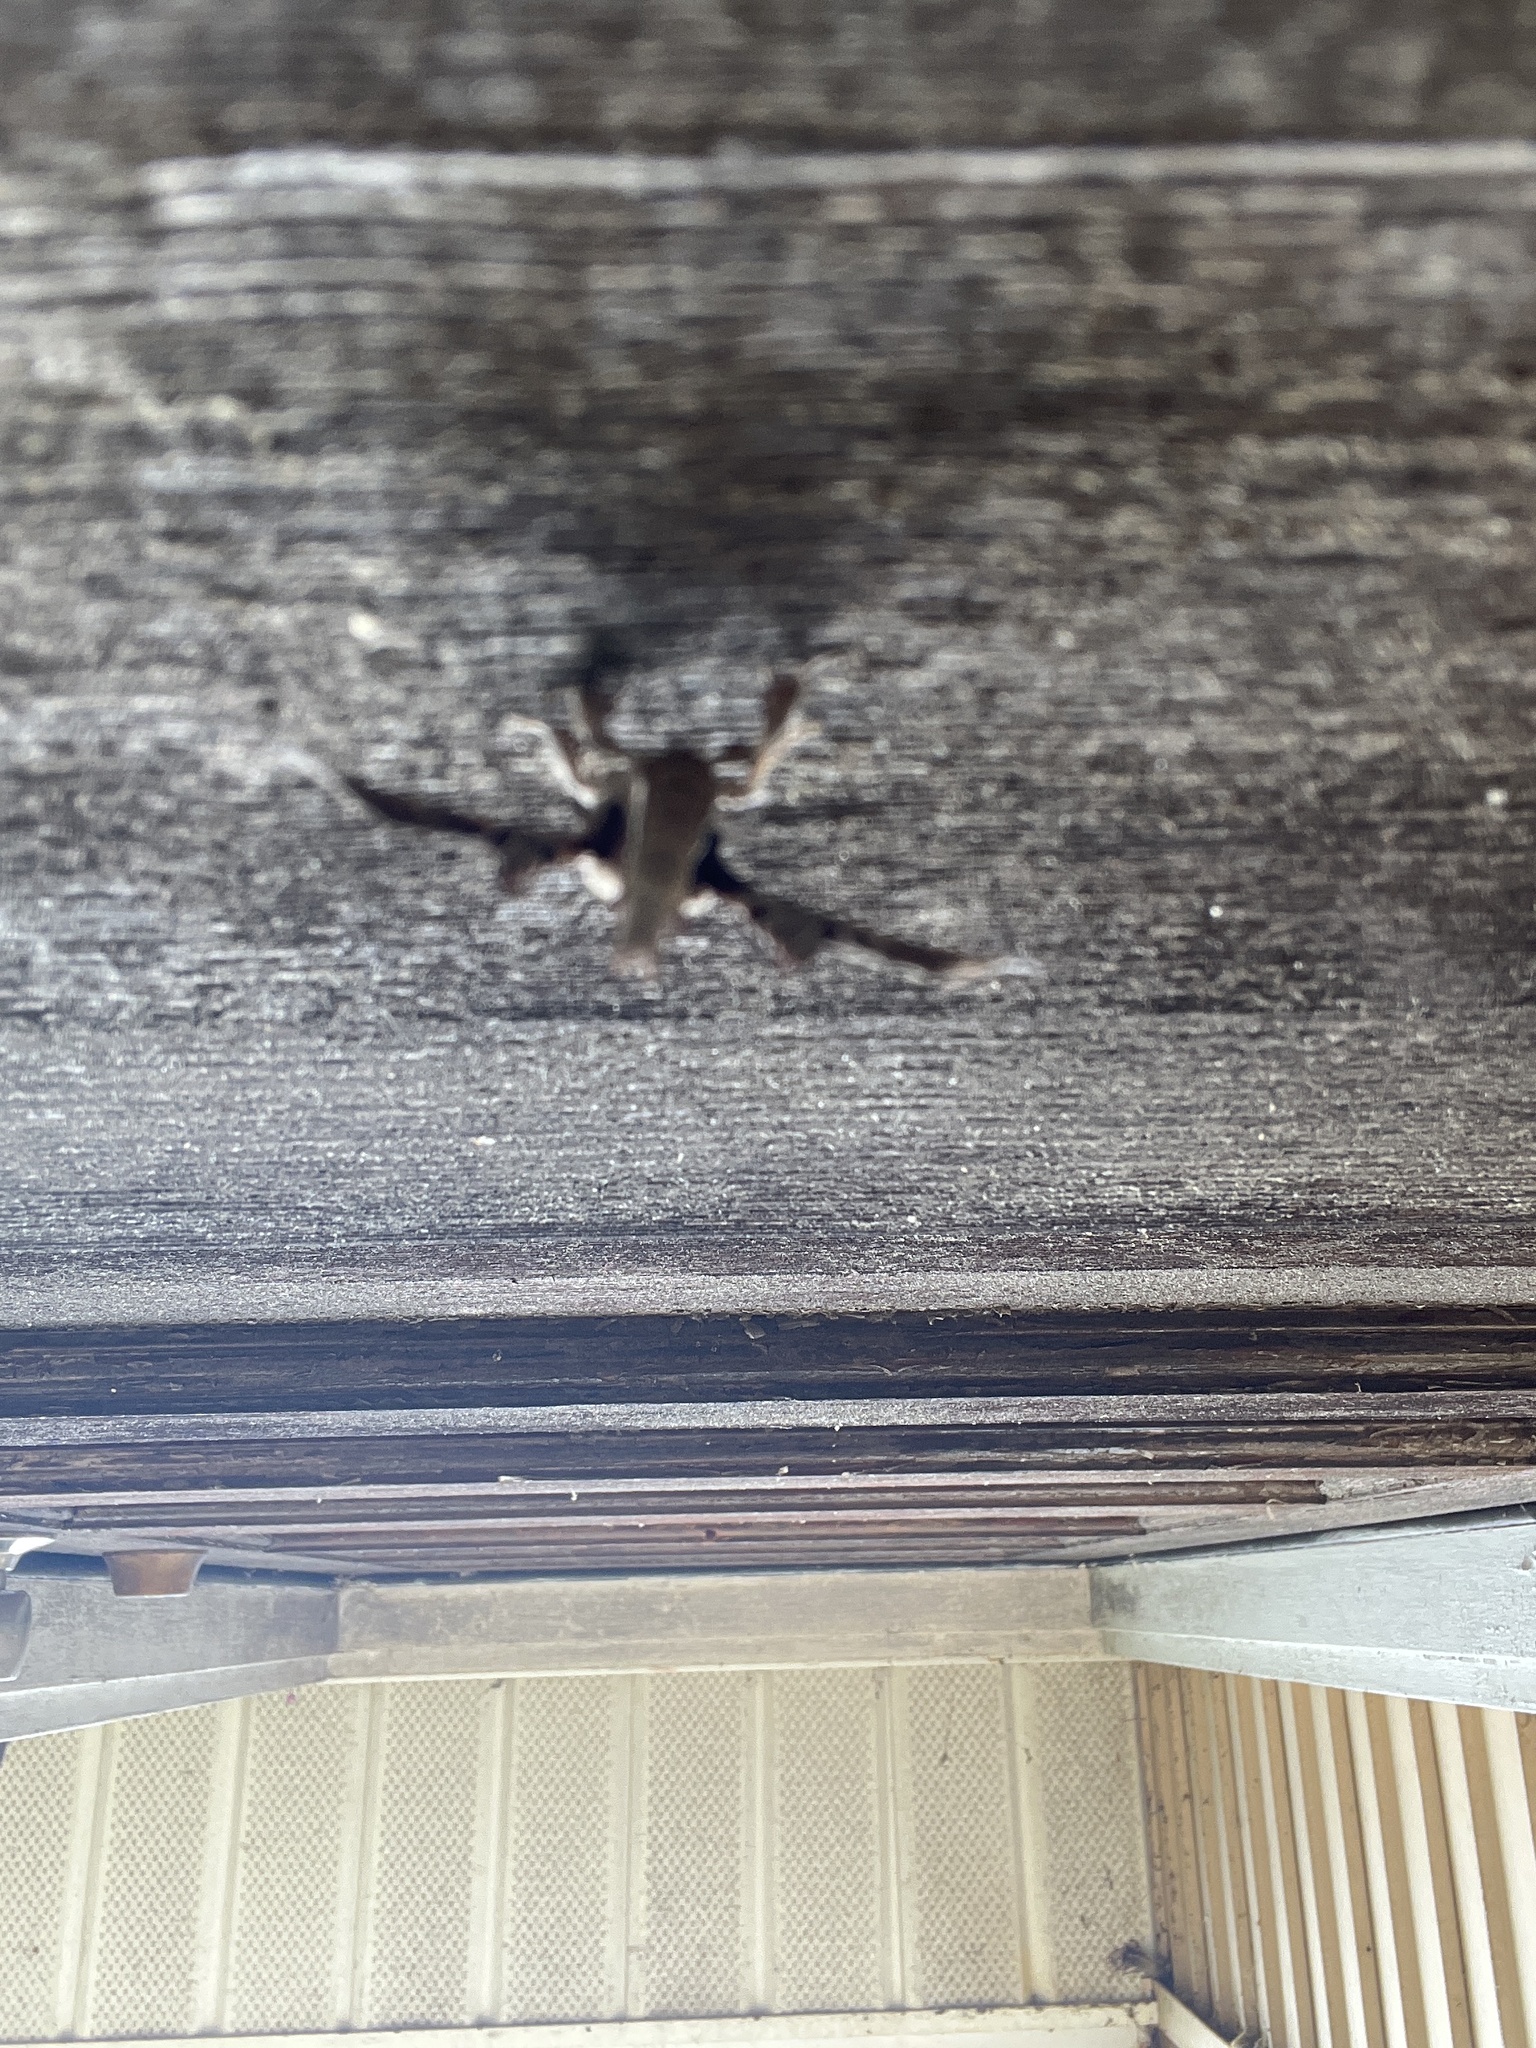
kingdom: Animalia
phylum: Arthropoda
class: Insecta
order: Lepidoptera
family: Apatelodidae
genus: Hygrochroa
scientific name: Hygrochroa Apatelodes torrefacta
